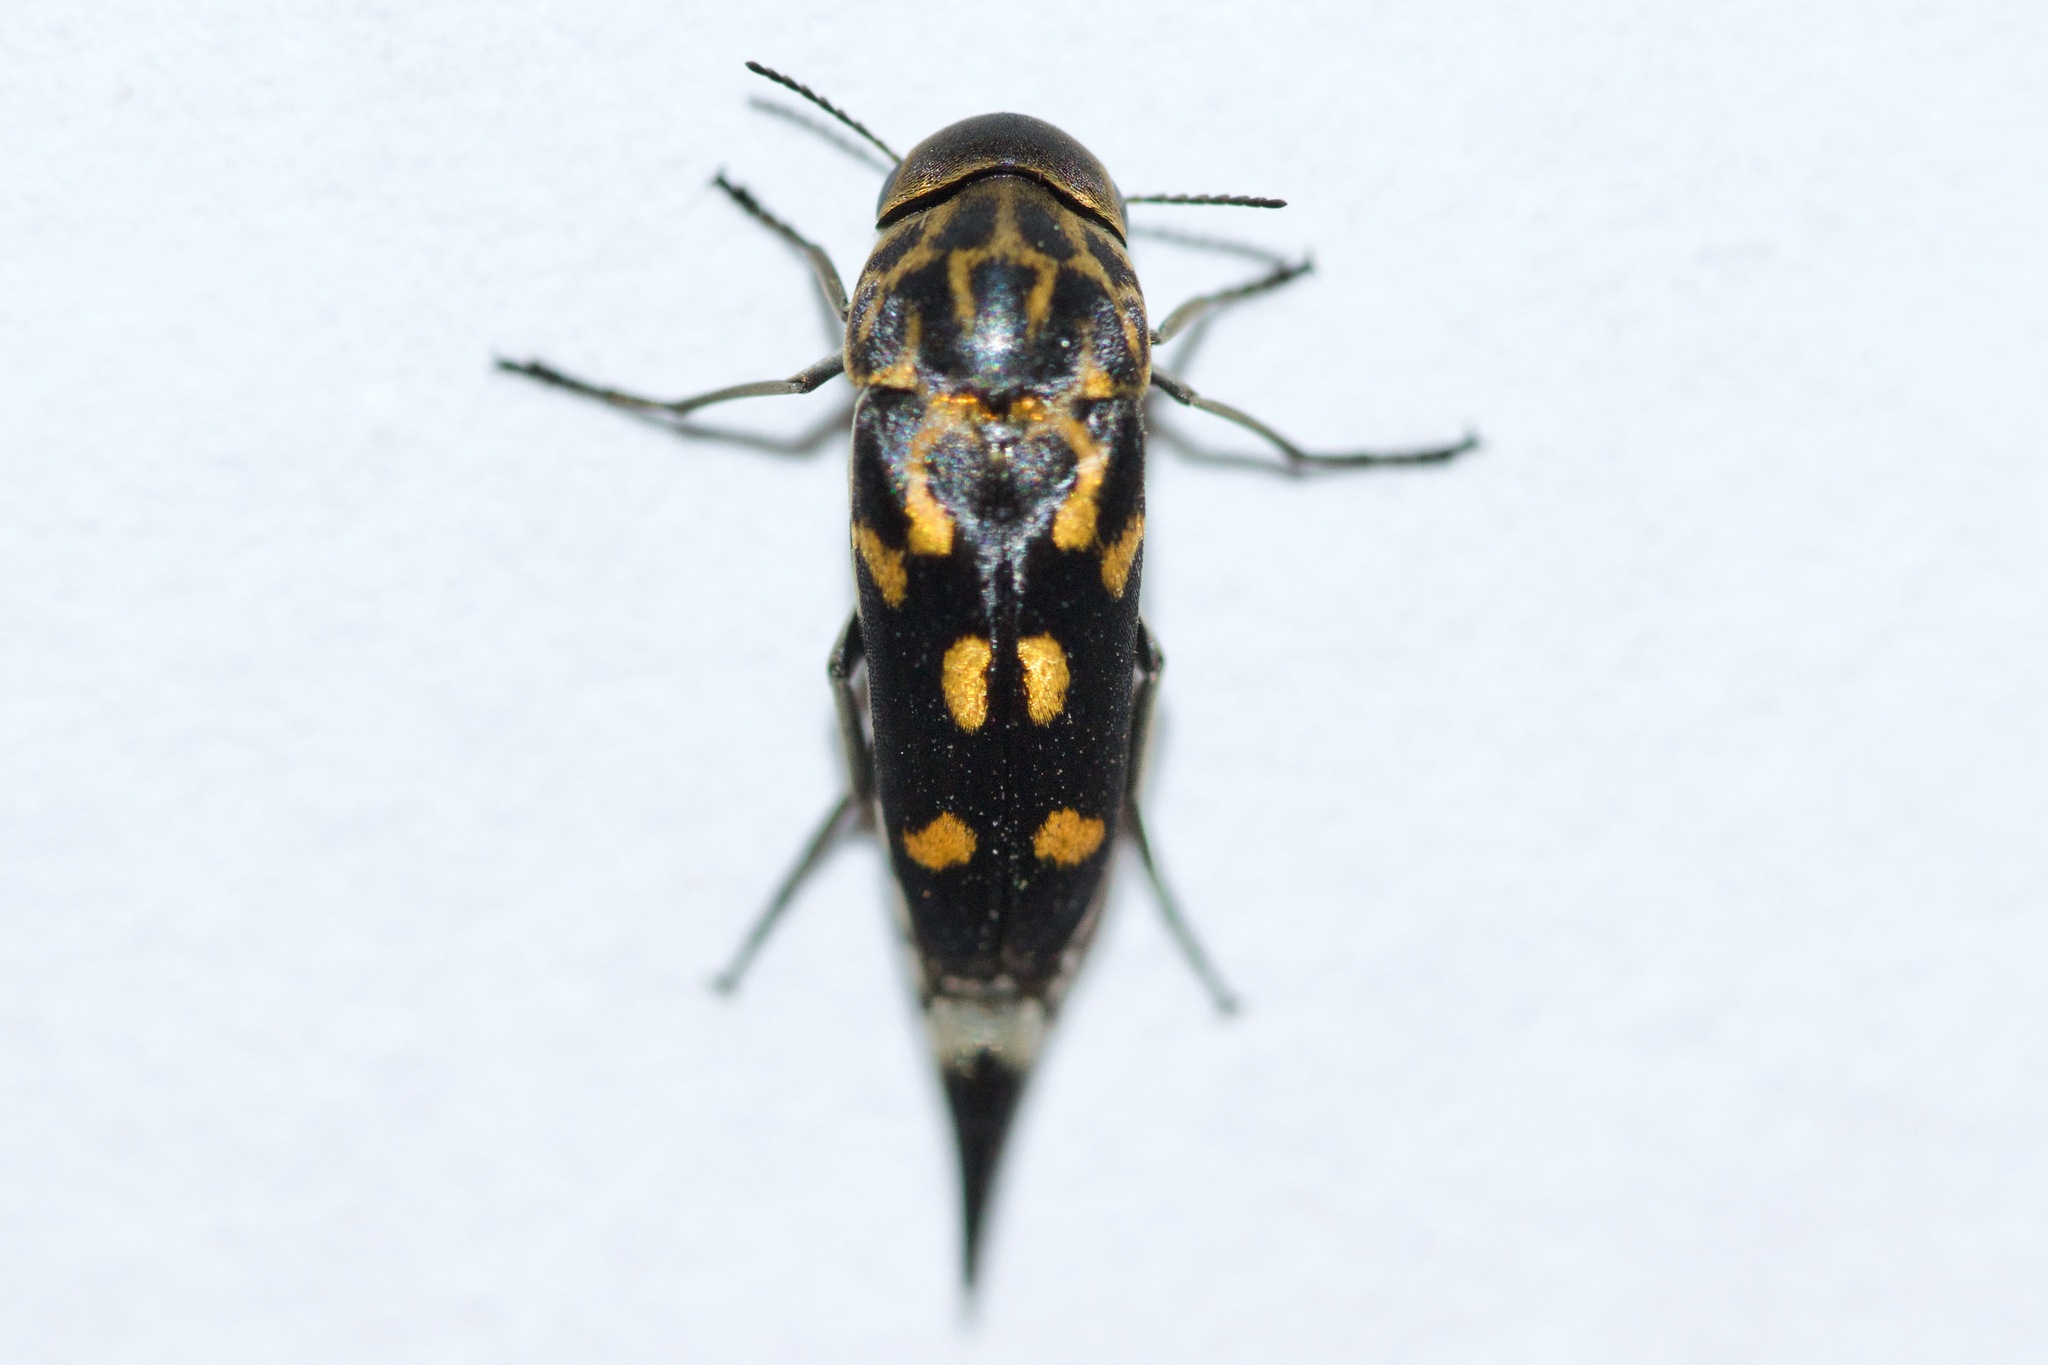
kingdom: Animalia
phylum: Arthropoda
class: Insecta
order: Coleoptera
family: Mordellidae
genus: Hoshihananomia
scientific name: Hoshihananomia octopunctata
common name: Eight-spotted tumbling flower beetle
